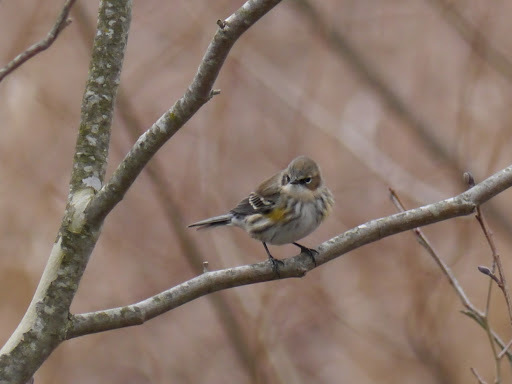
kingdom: Animalia
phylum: Chordata
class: Aves
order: Passeriformes
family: Parulidae
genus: Setophaga
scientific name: Setophaga coronata
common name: Myrtle warbler
